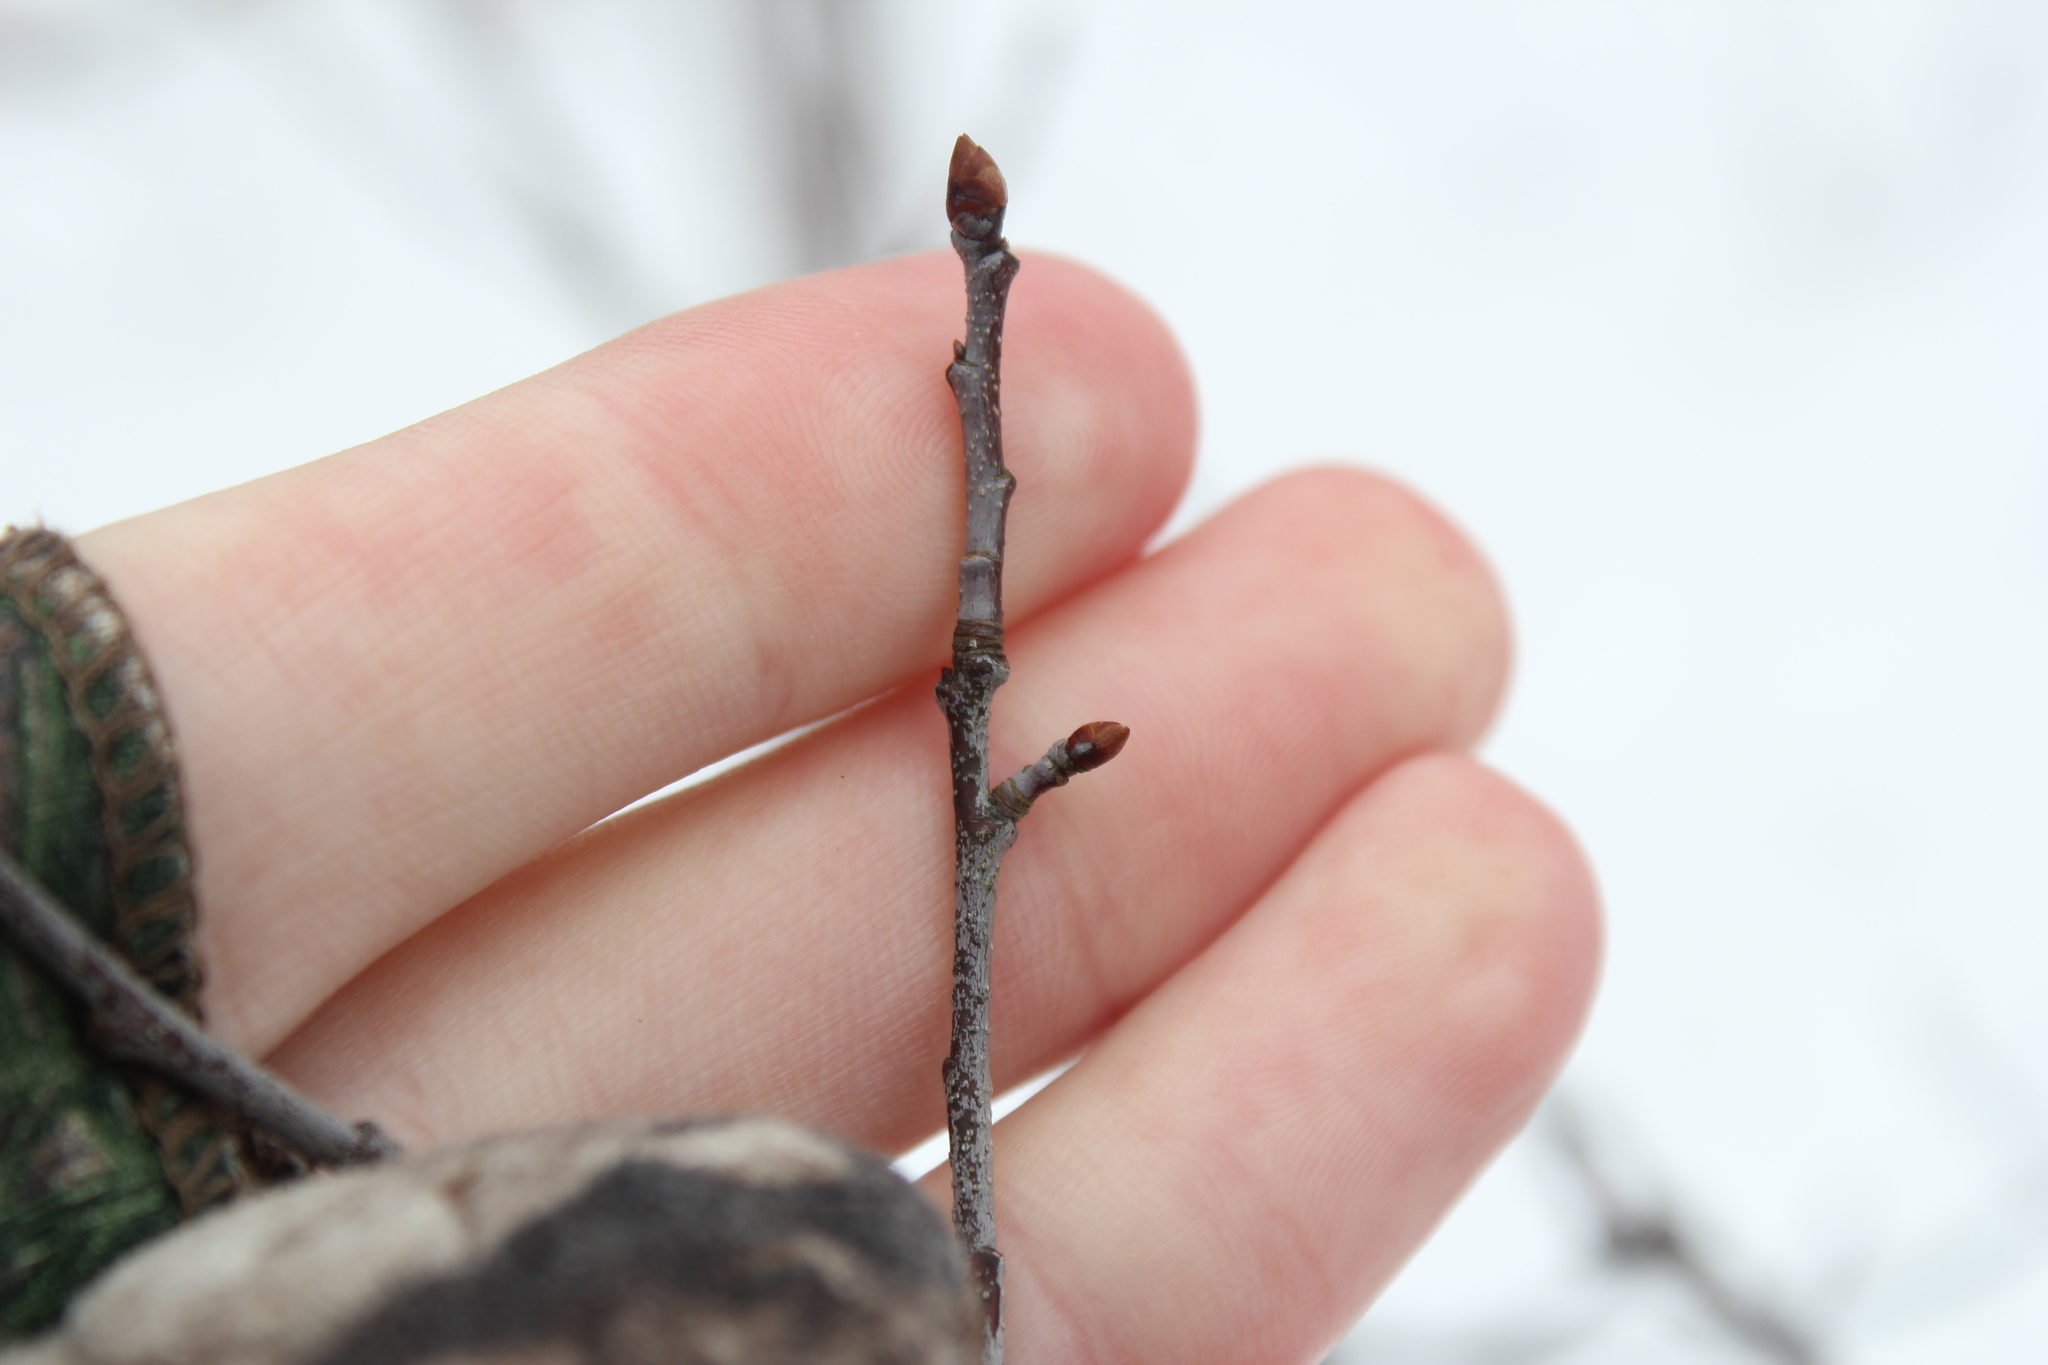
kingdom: Plantae
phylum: Tracheophyta
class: Magnoliopsida
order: Rosales
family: Rosaceae
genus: Prunus
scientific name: Prunus serotina
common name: Black cherry
